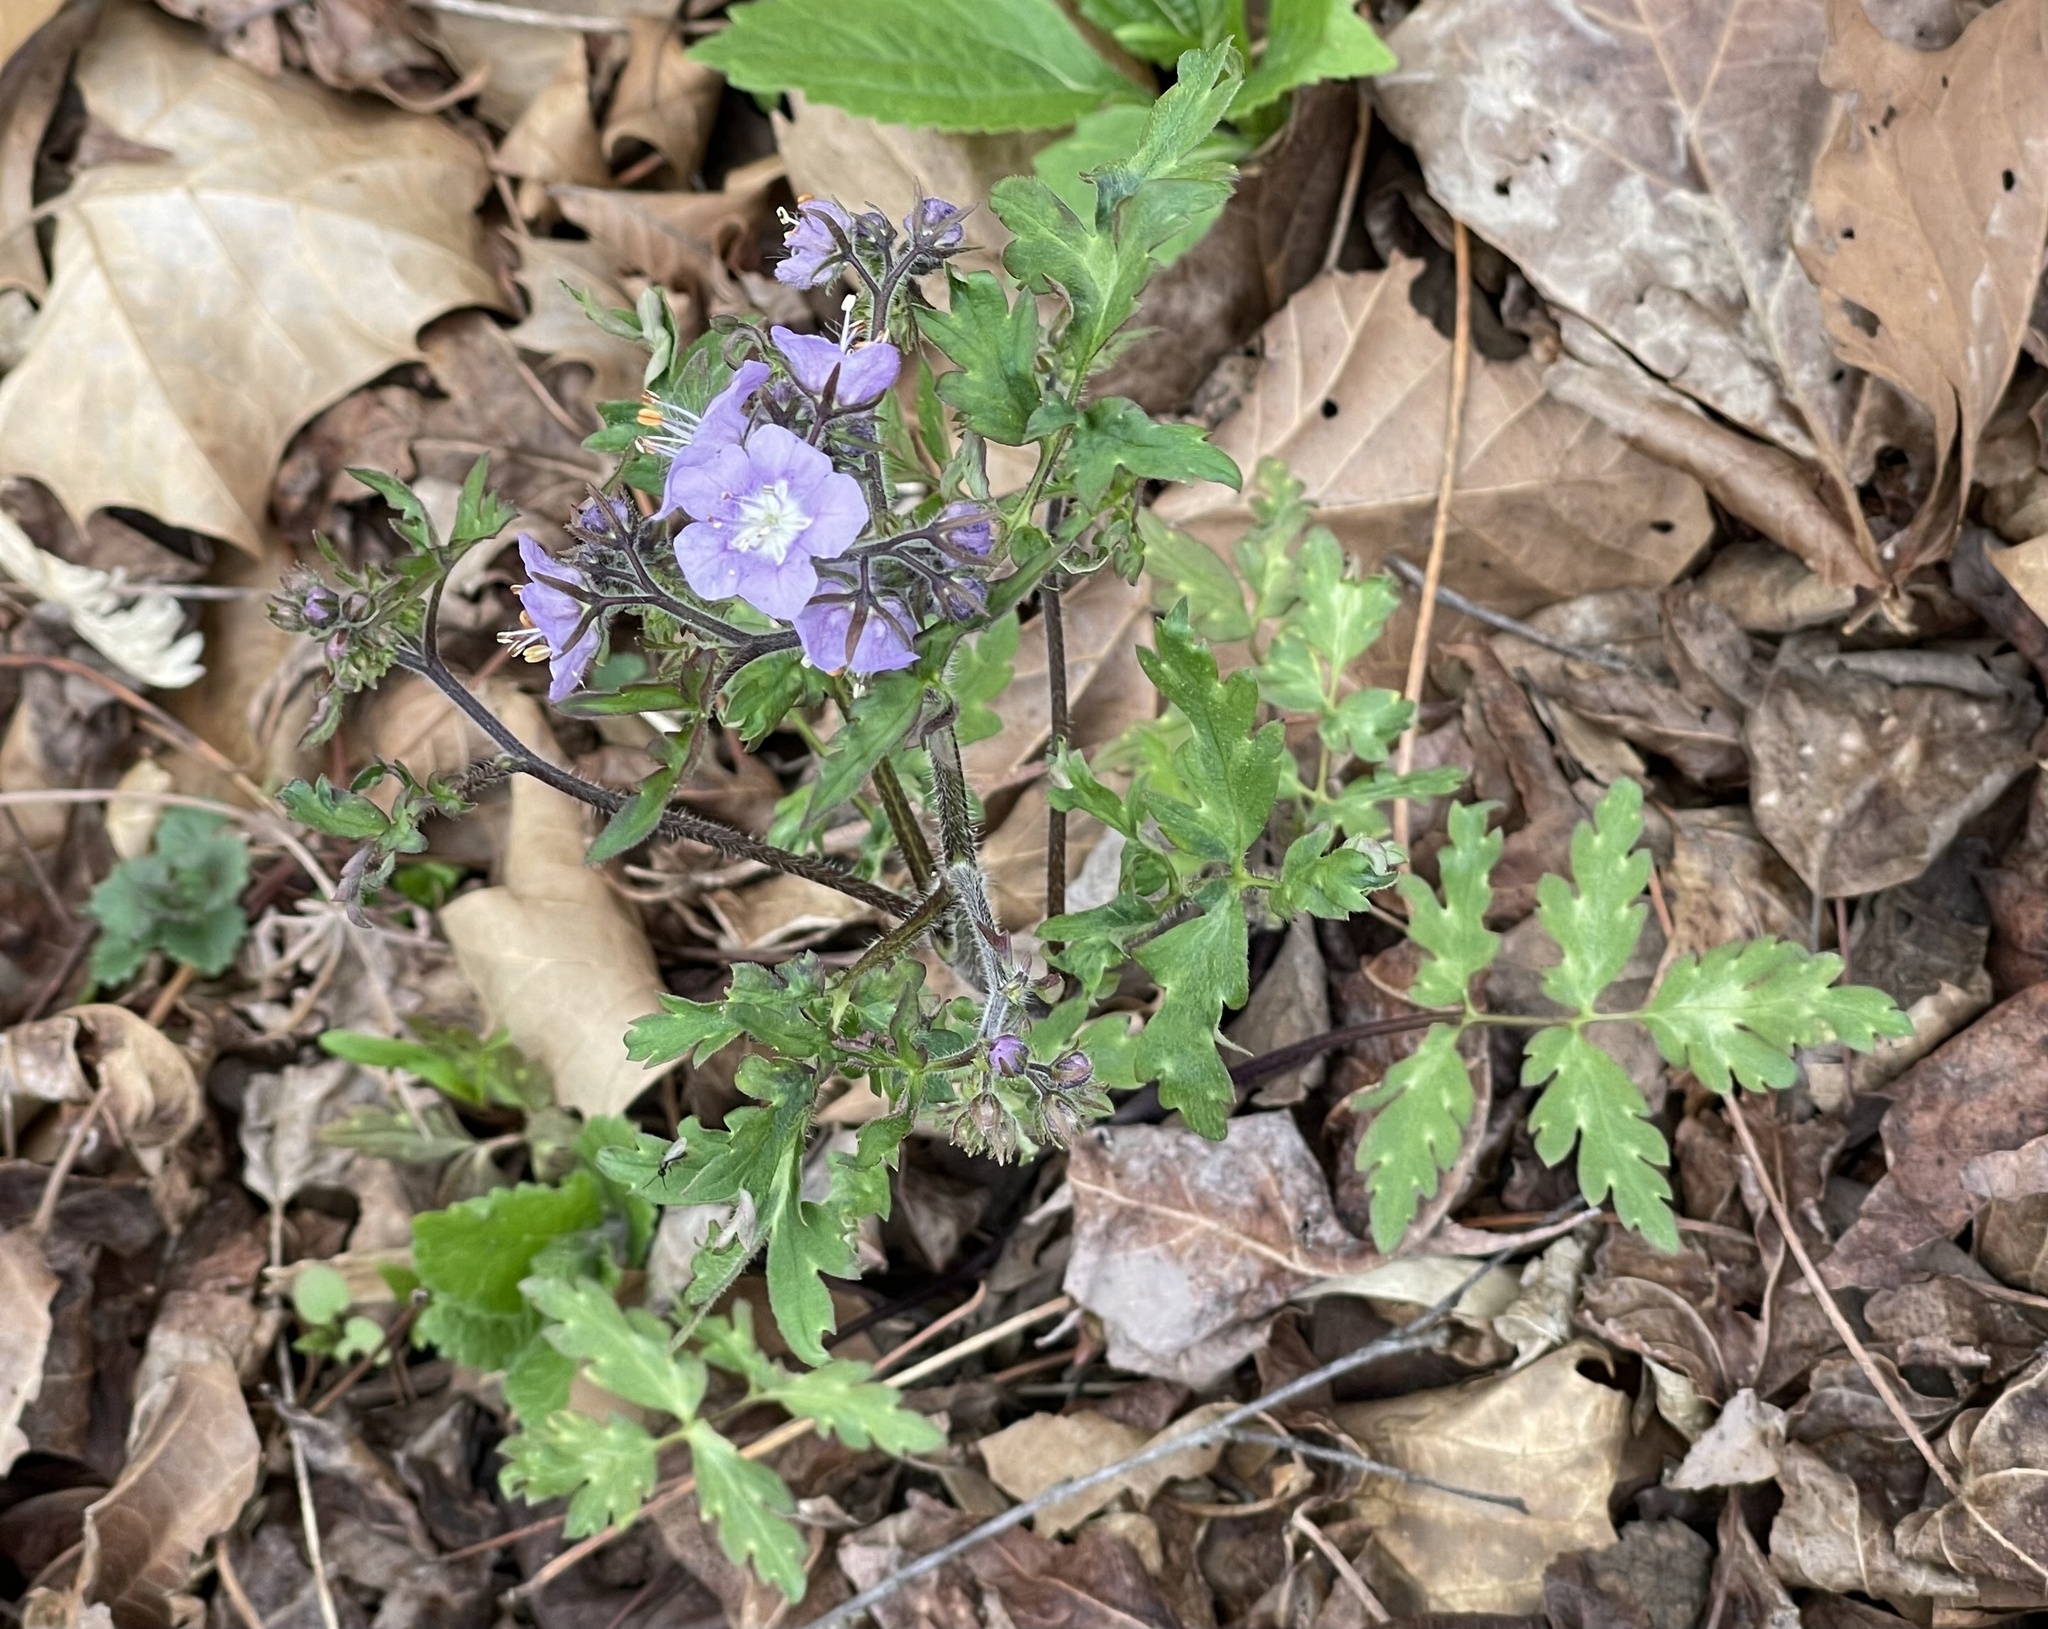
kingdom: Plantae
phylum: Tracheophyta
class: Magnoliopsida
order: Boraginales
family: Hydrophyllaceae
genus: Phacelia
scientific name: Phacelia bipinnatifida
